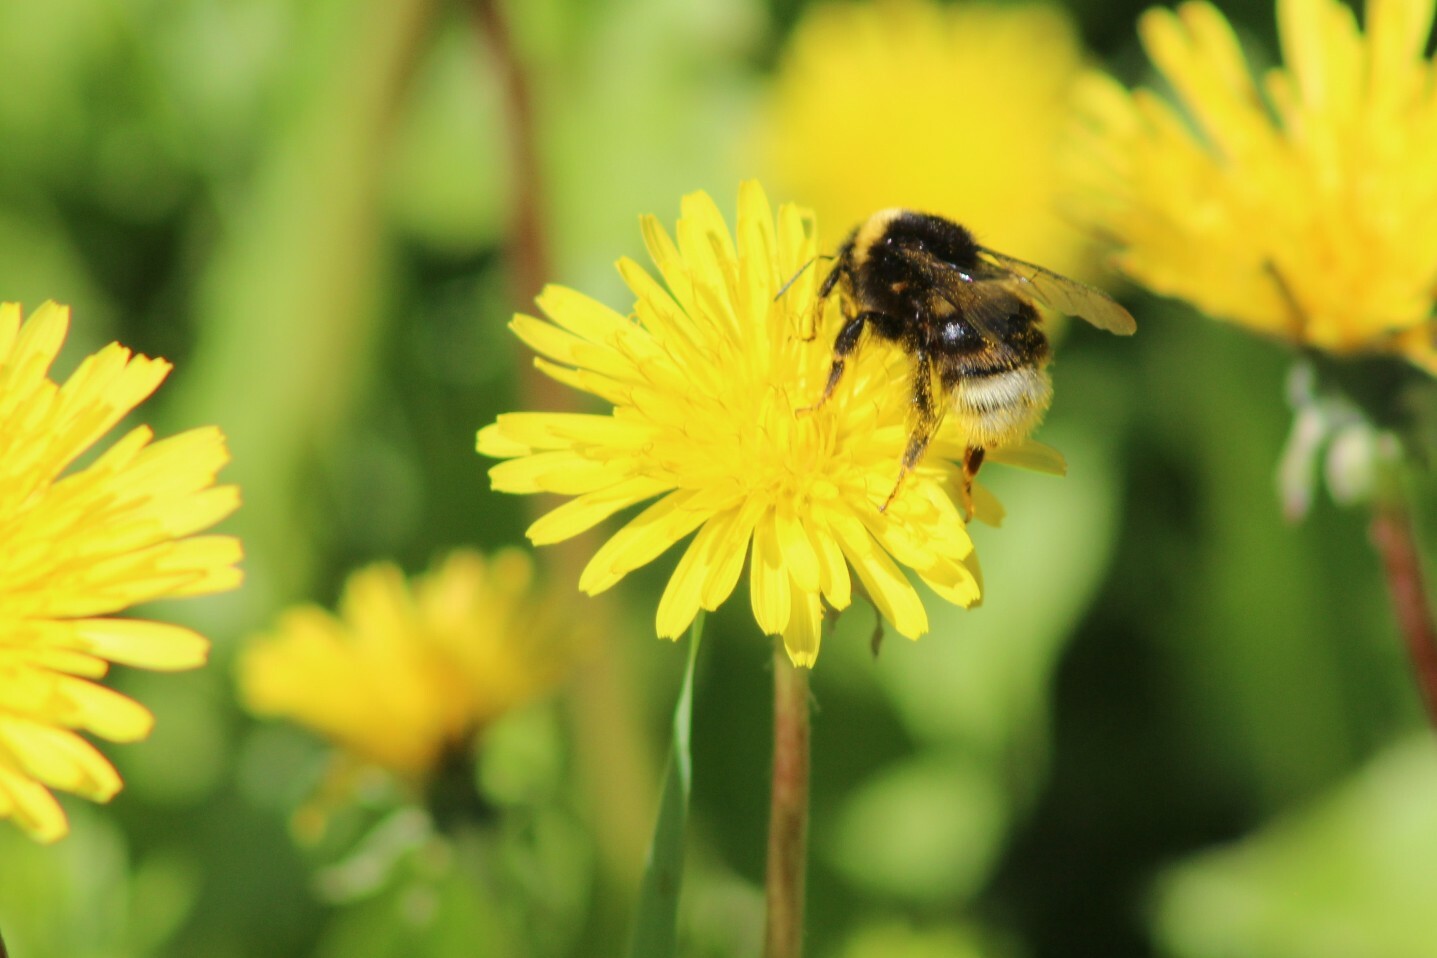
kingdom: Animalia
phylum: Arthropoda
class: Insecta
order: Hymenoptera
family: Apidae
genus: Bombus
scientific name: Bombus soroeensis
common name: Broken-belted humble-bee
